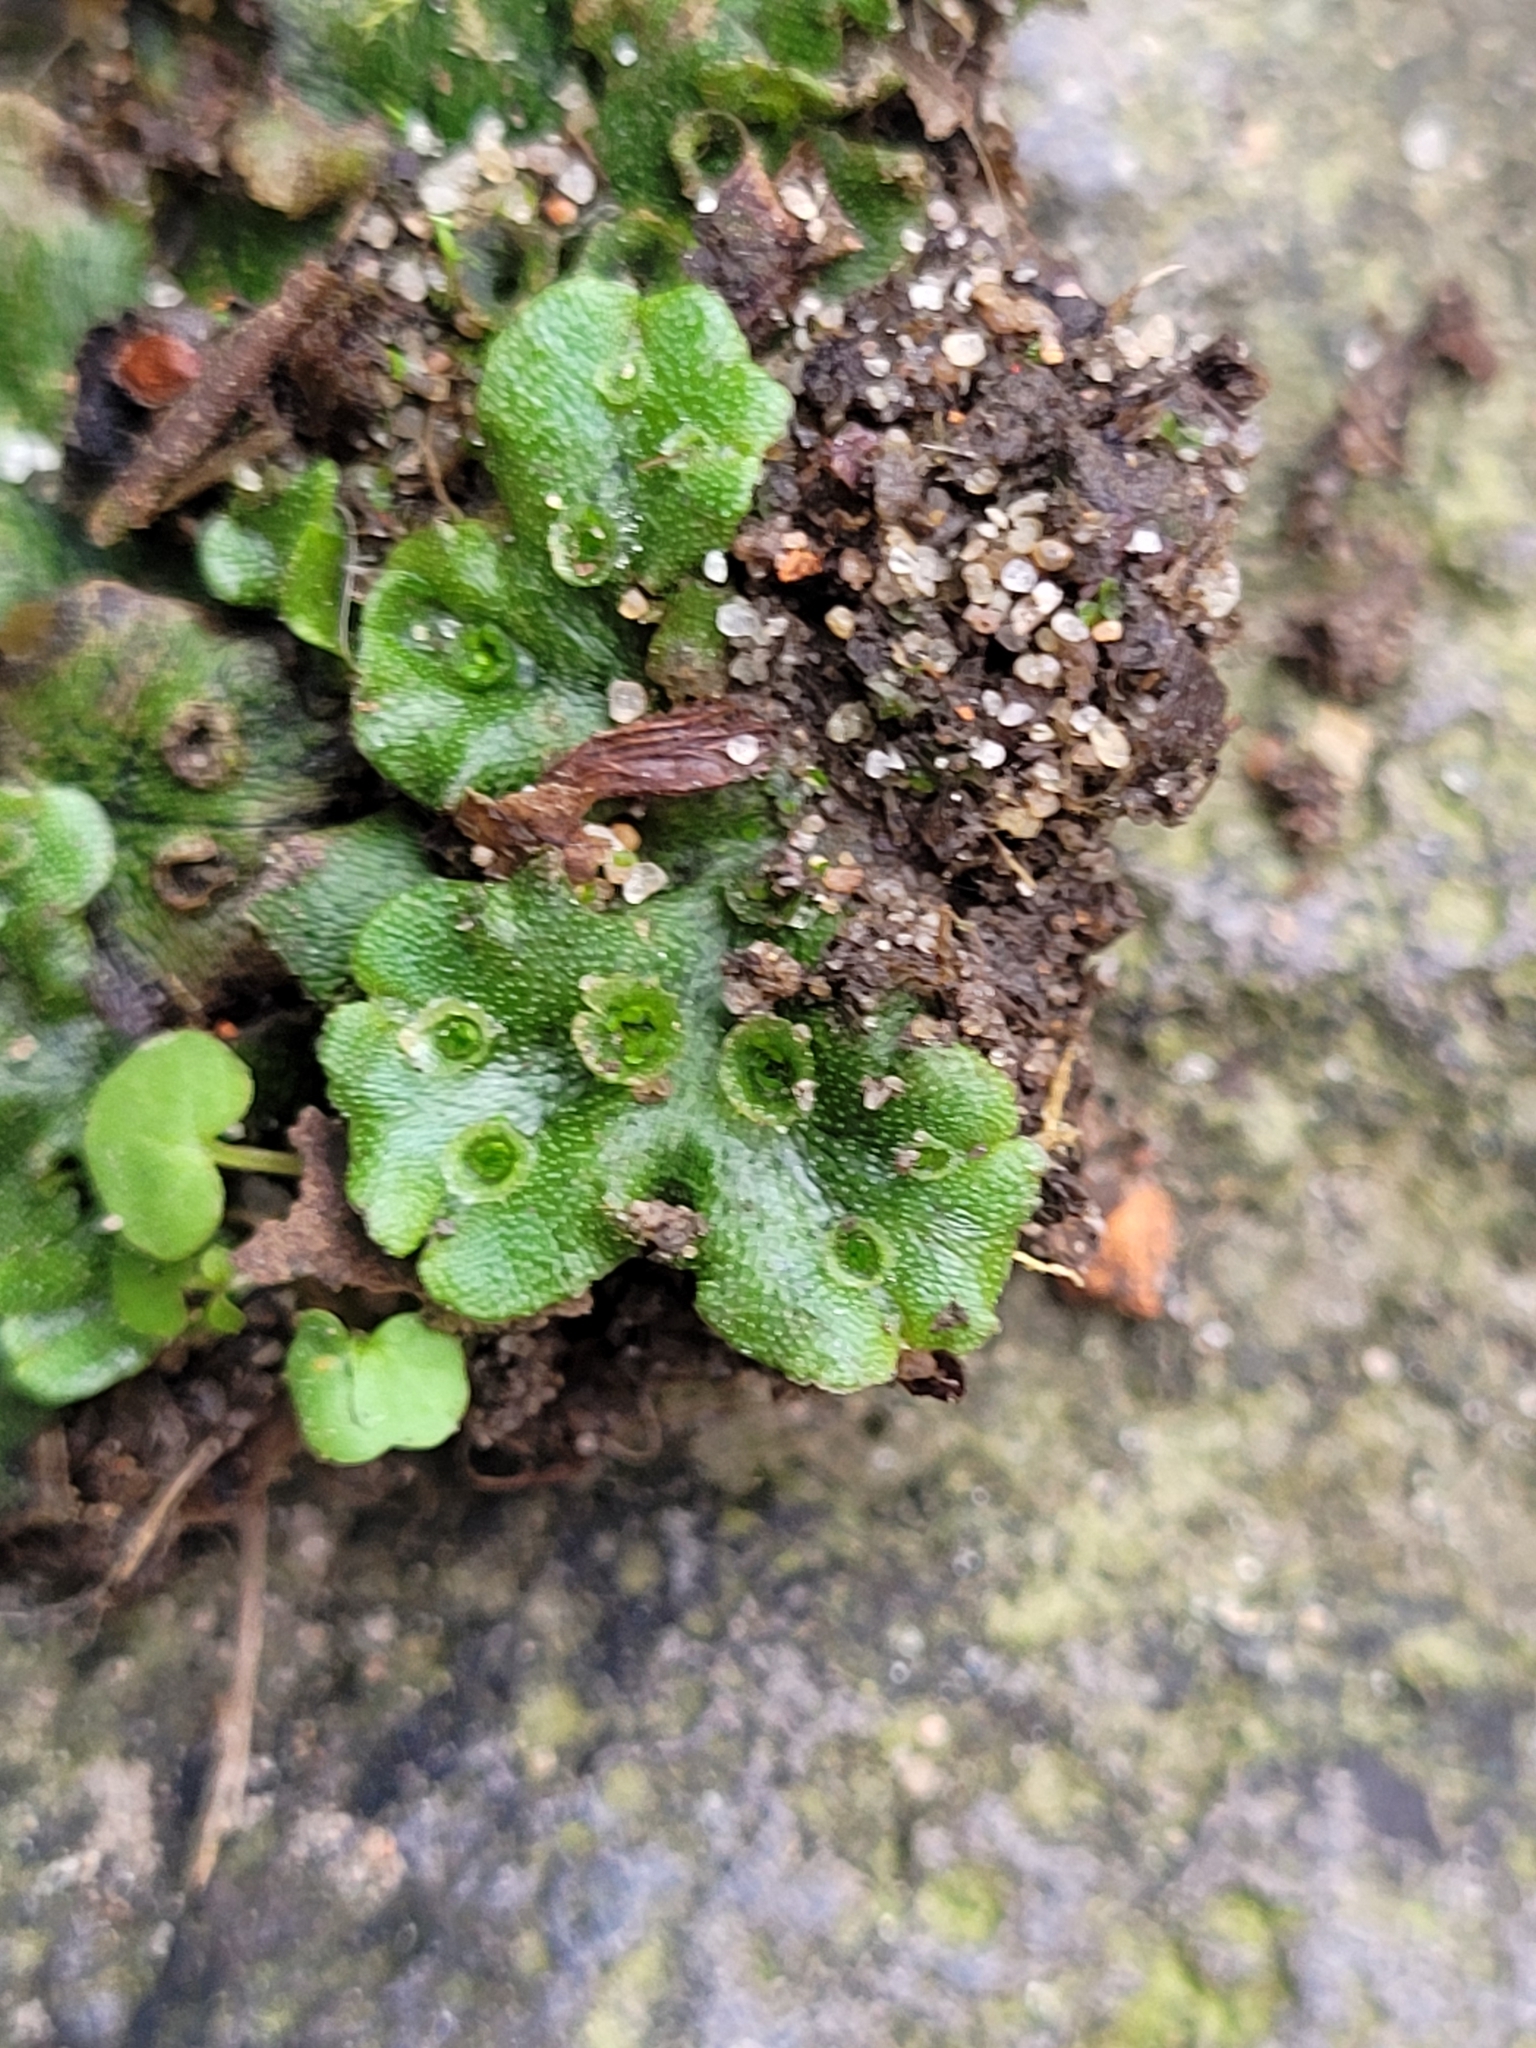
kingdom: Plantae
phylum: Marchantiophyta
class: Marchantiopsida
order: Marchantiales
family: Marchantiaceae
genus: Marchantia
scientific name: Marchantia polymorpha
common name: Common liverwort
